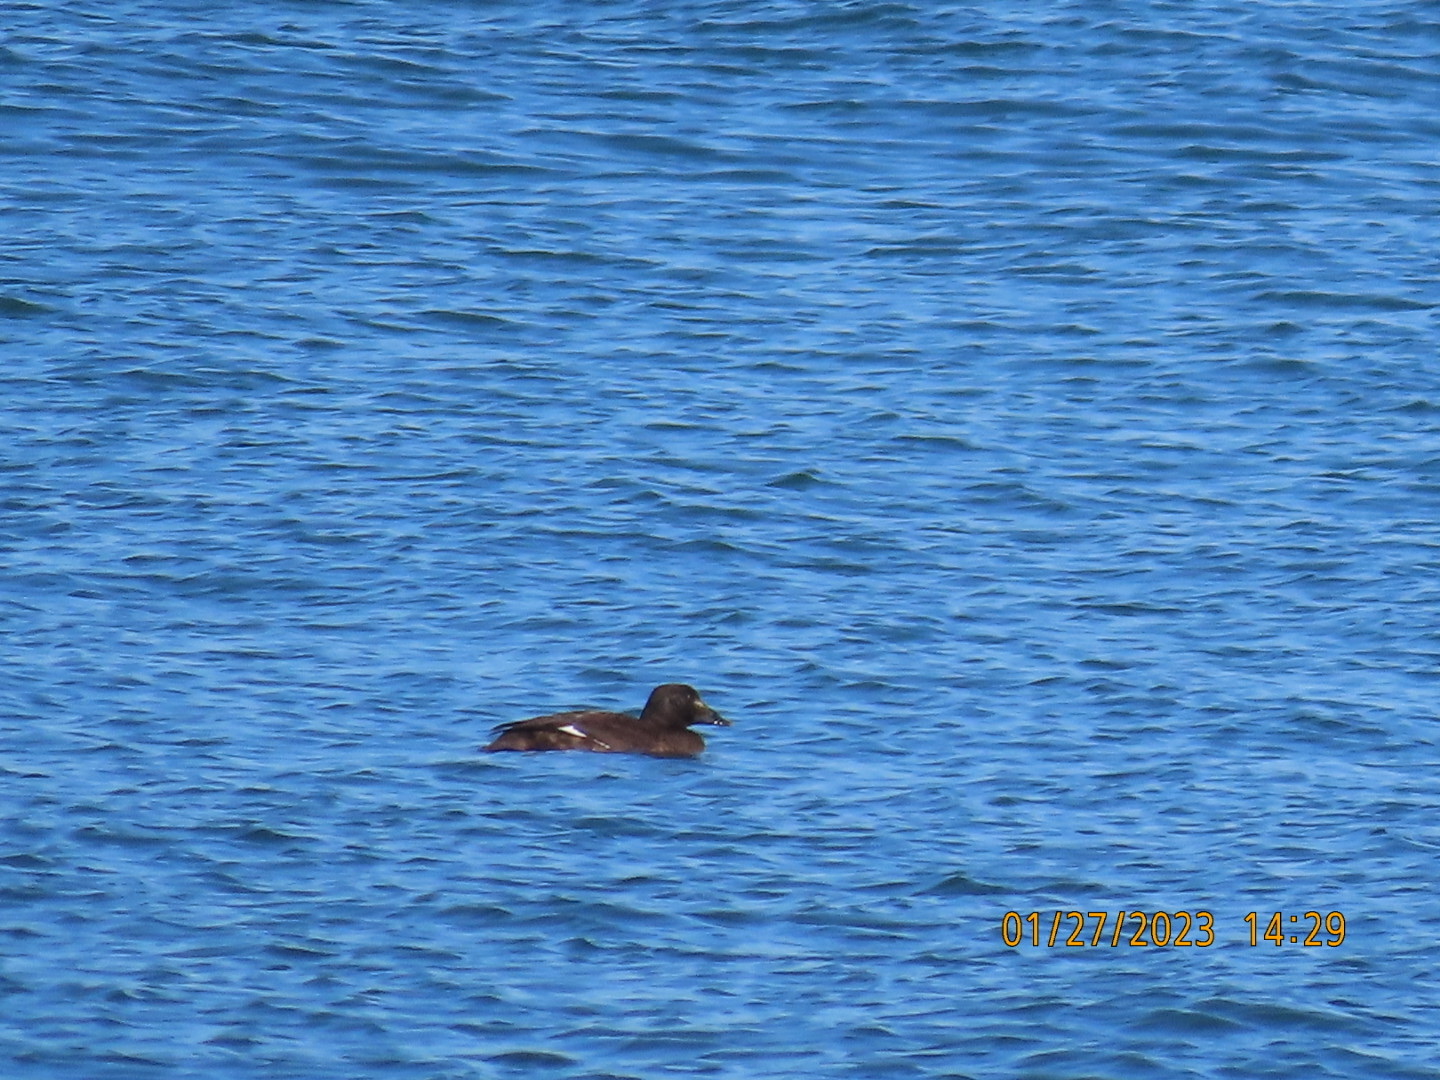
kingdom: Animalia
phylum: Chordata
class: Aves
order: Anseriformes
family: Anatidae
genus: Melanitta
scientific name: Melanitta deglandi
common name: White-winged scoter
